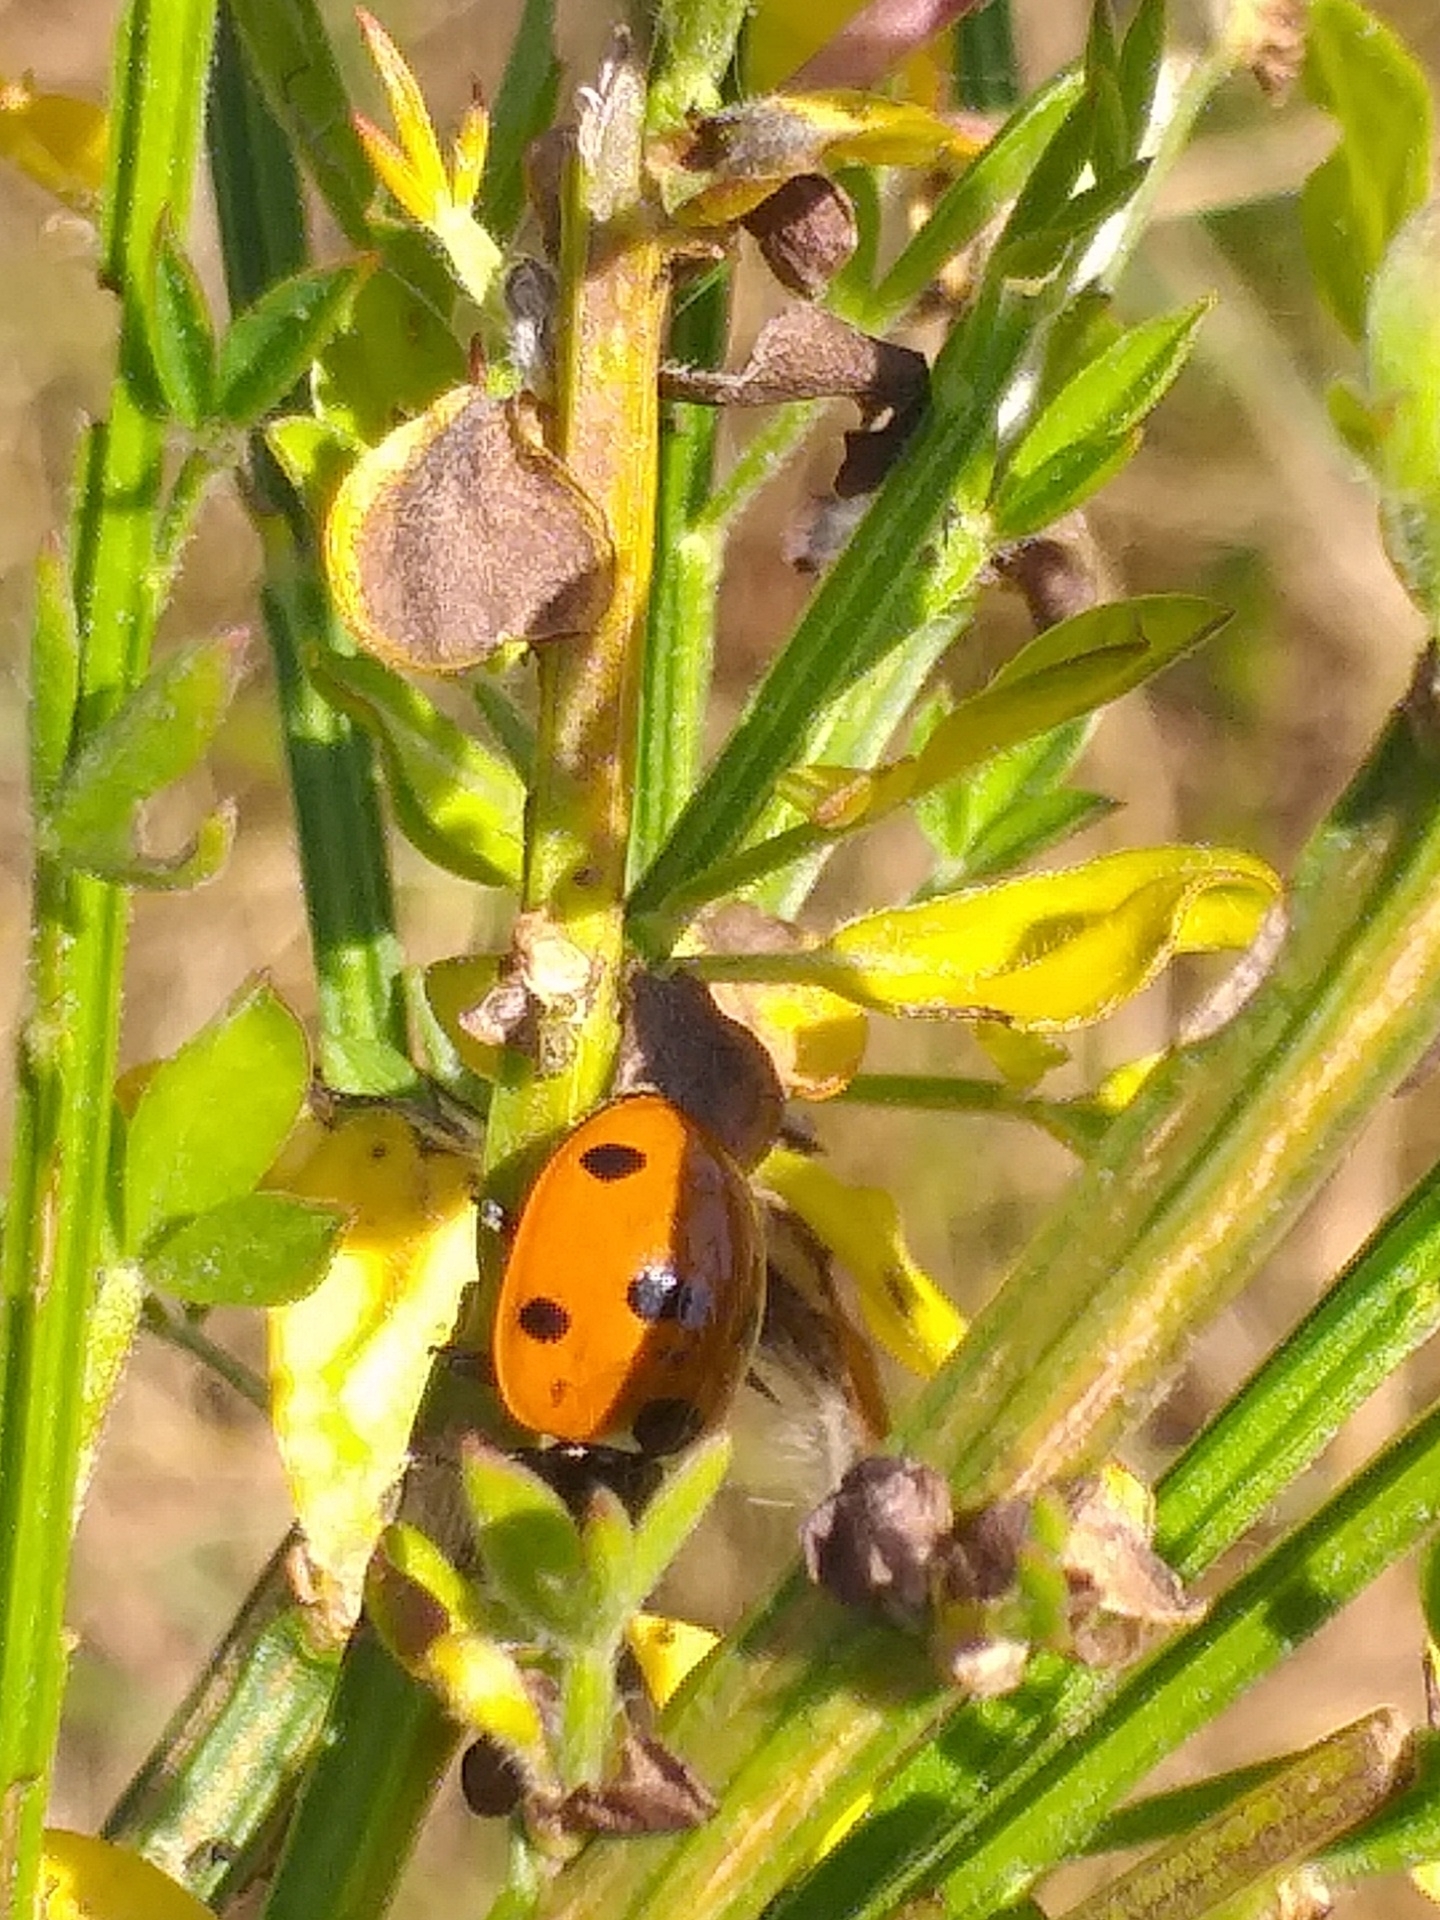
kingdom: Animalia
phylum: Arthropoda
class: Insecta
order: Coleoptera
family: Coccinellidae
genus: Coccinella
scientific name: Coccinella septempunctata
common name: Sevenspotted lady beetle
